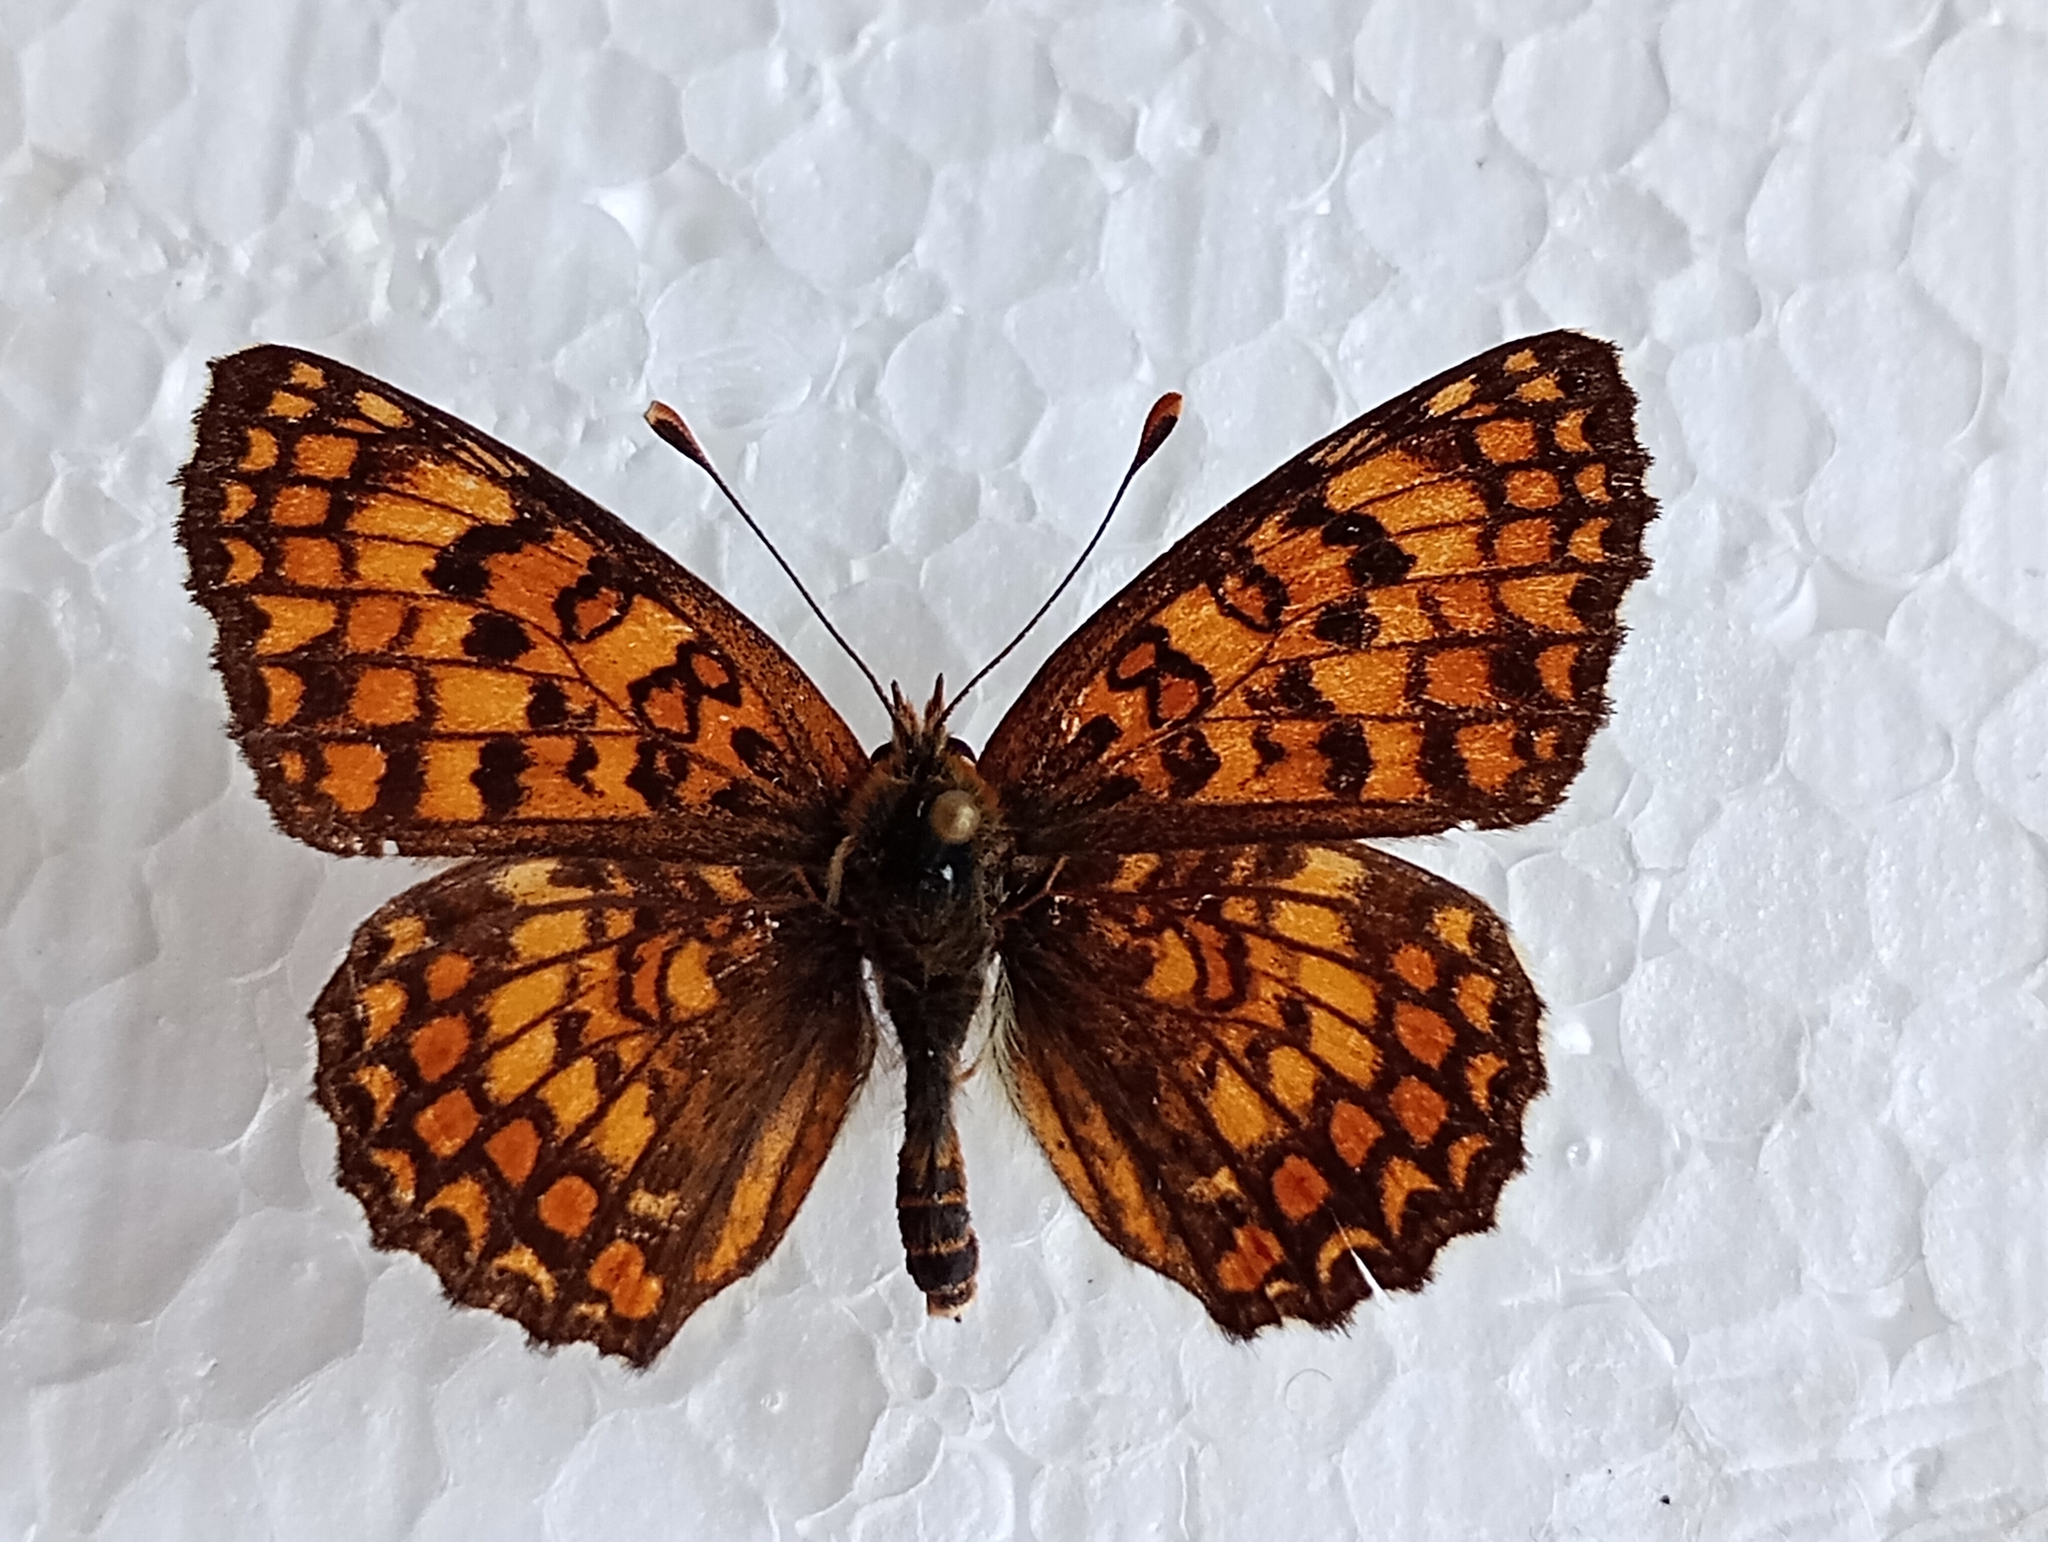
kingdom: Animalia
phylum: Arthropoda
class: Insecta
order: Lepidoptera
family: Nymphalidae
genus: Melitaea
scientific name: Melitaea phoebe
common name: Knapweed fritillary
